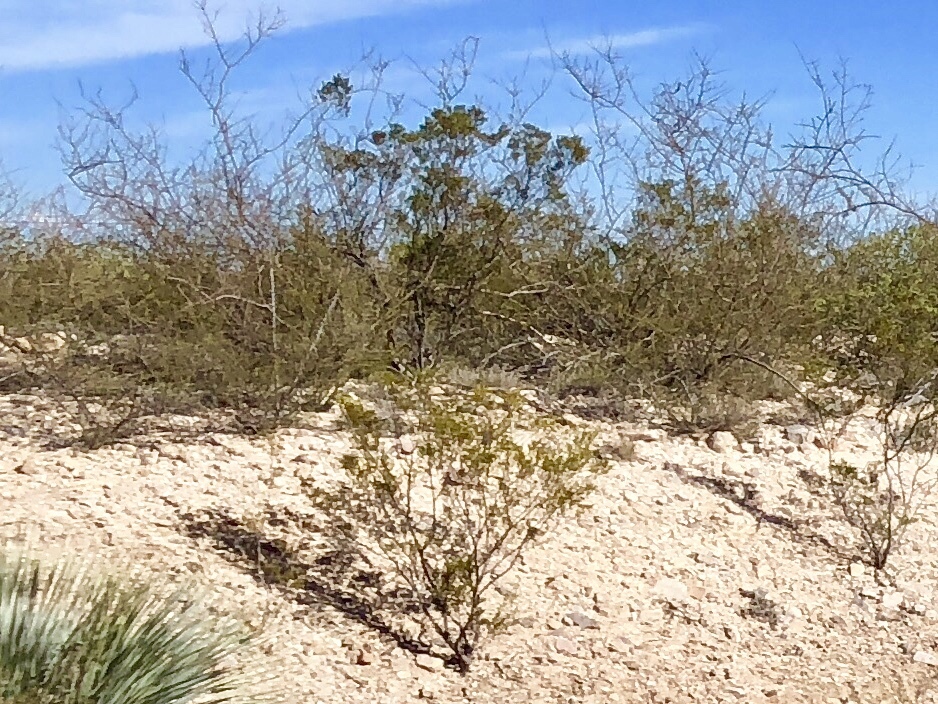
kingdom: Plantae
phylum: Tracheophyta
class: Magnoliopsida
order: Zygophyllales
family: Zygophyllaceae
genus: Larrea
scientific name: Larrea tridentata
